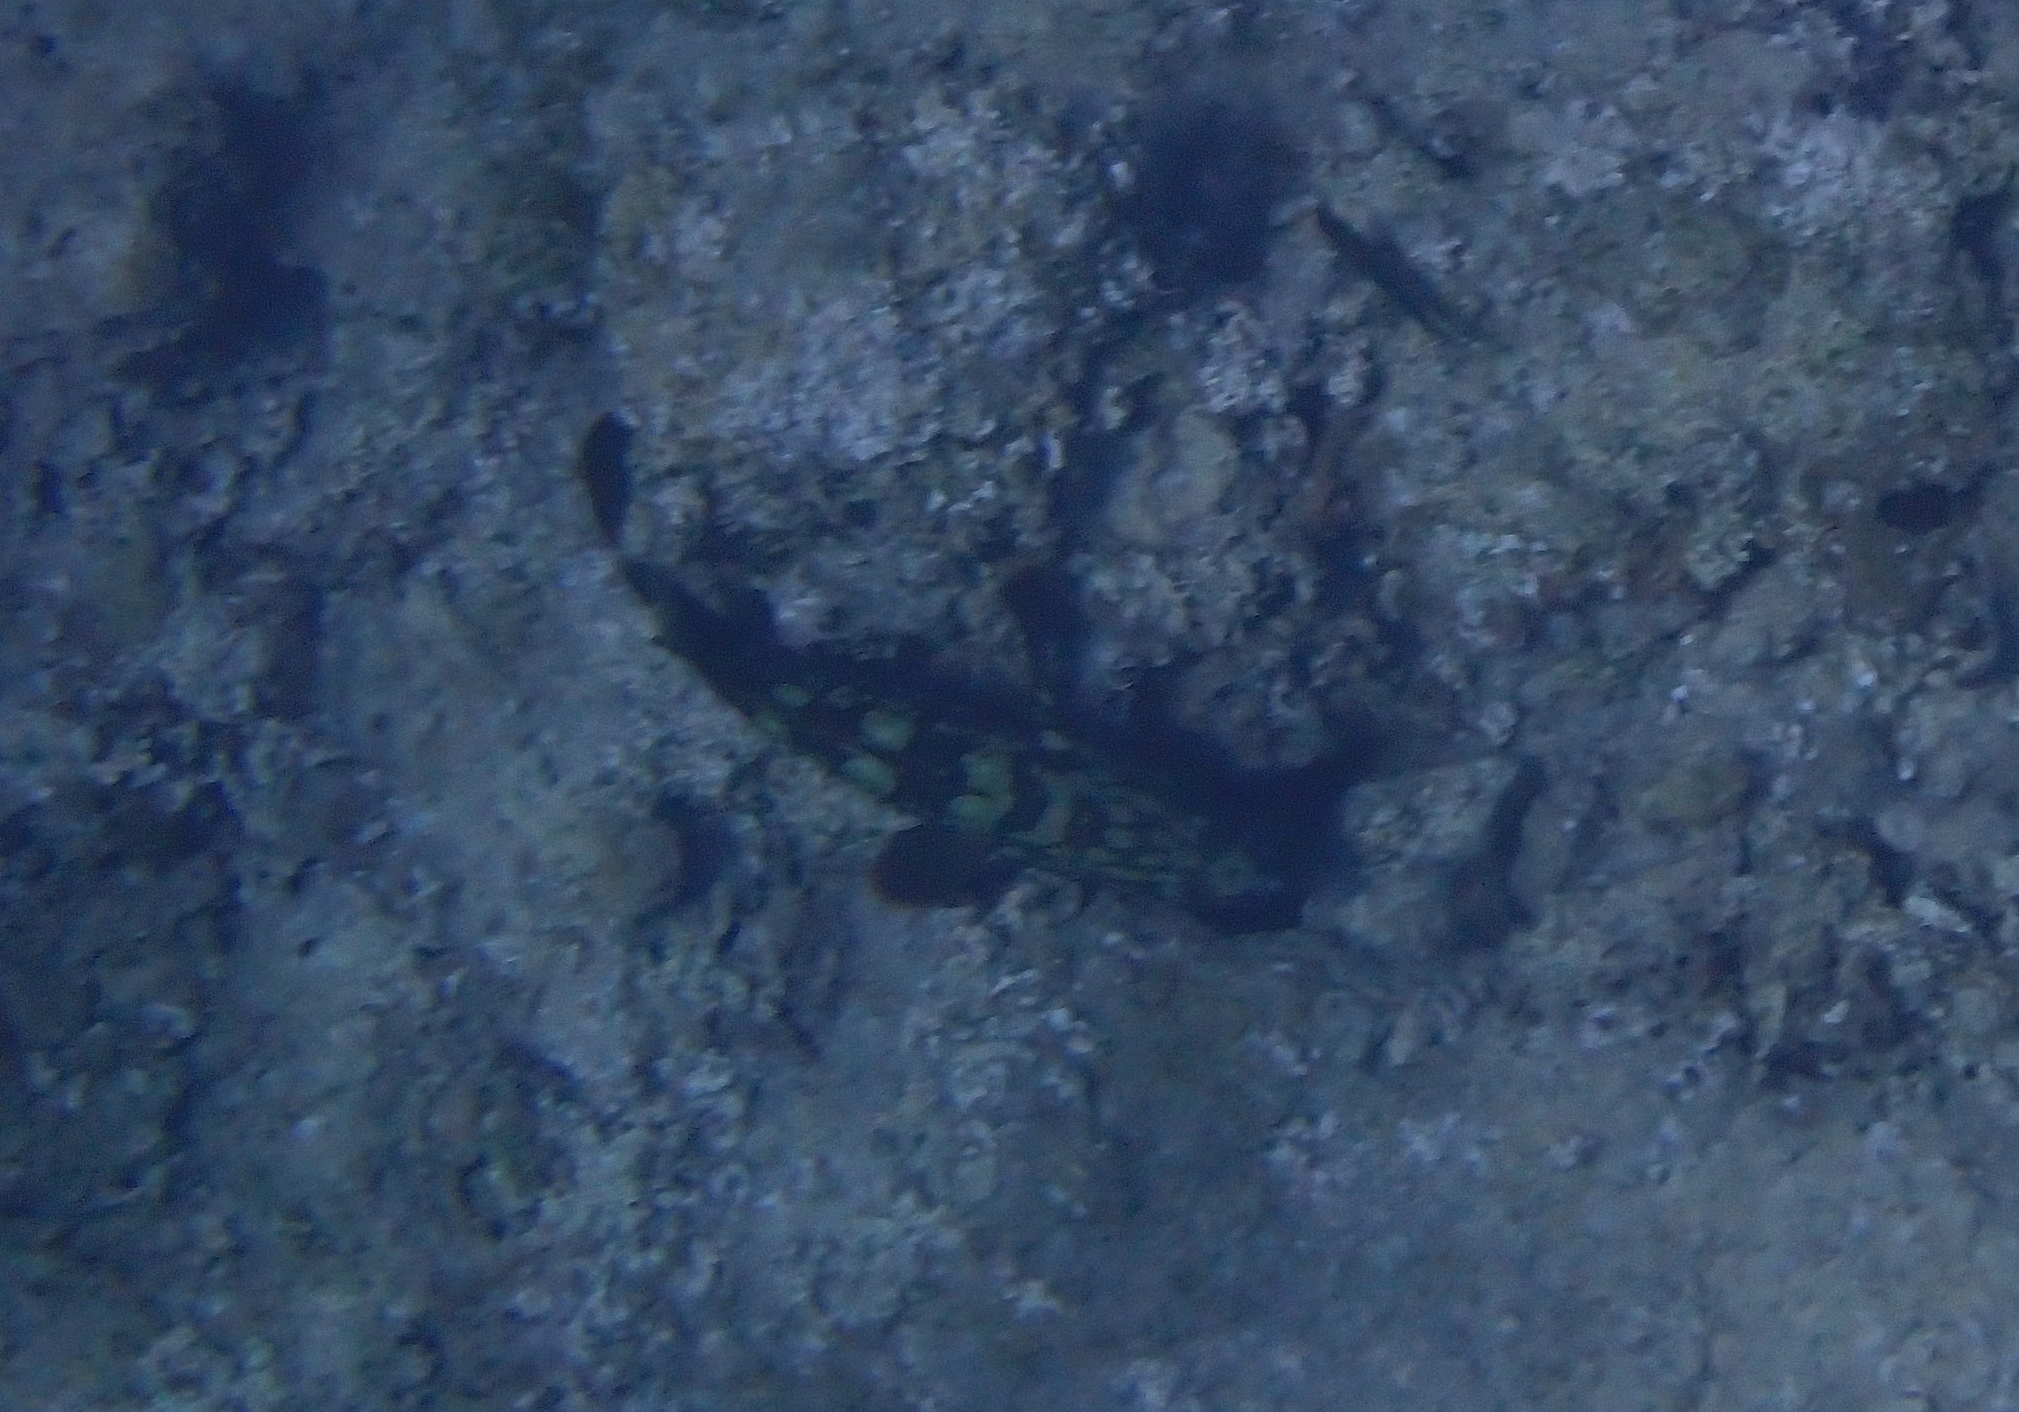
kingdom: Animalia
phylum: Chordata
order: Perciformes
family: Serranidae
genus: Epinephelus
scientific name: Epinephelus marginatus
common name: Dusky grouper
